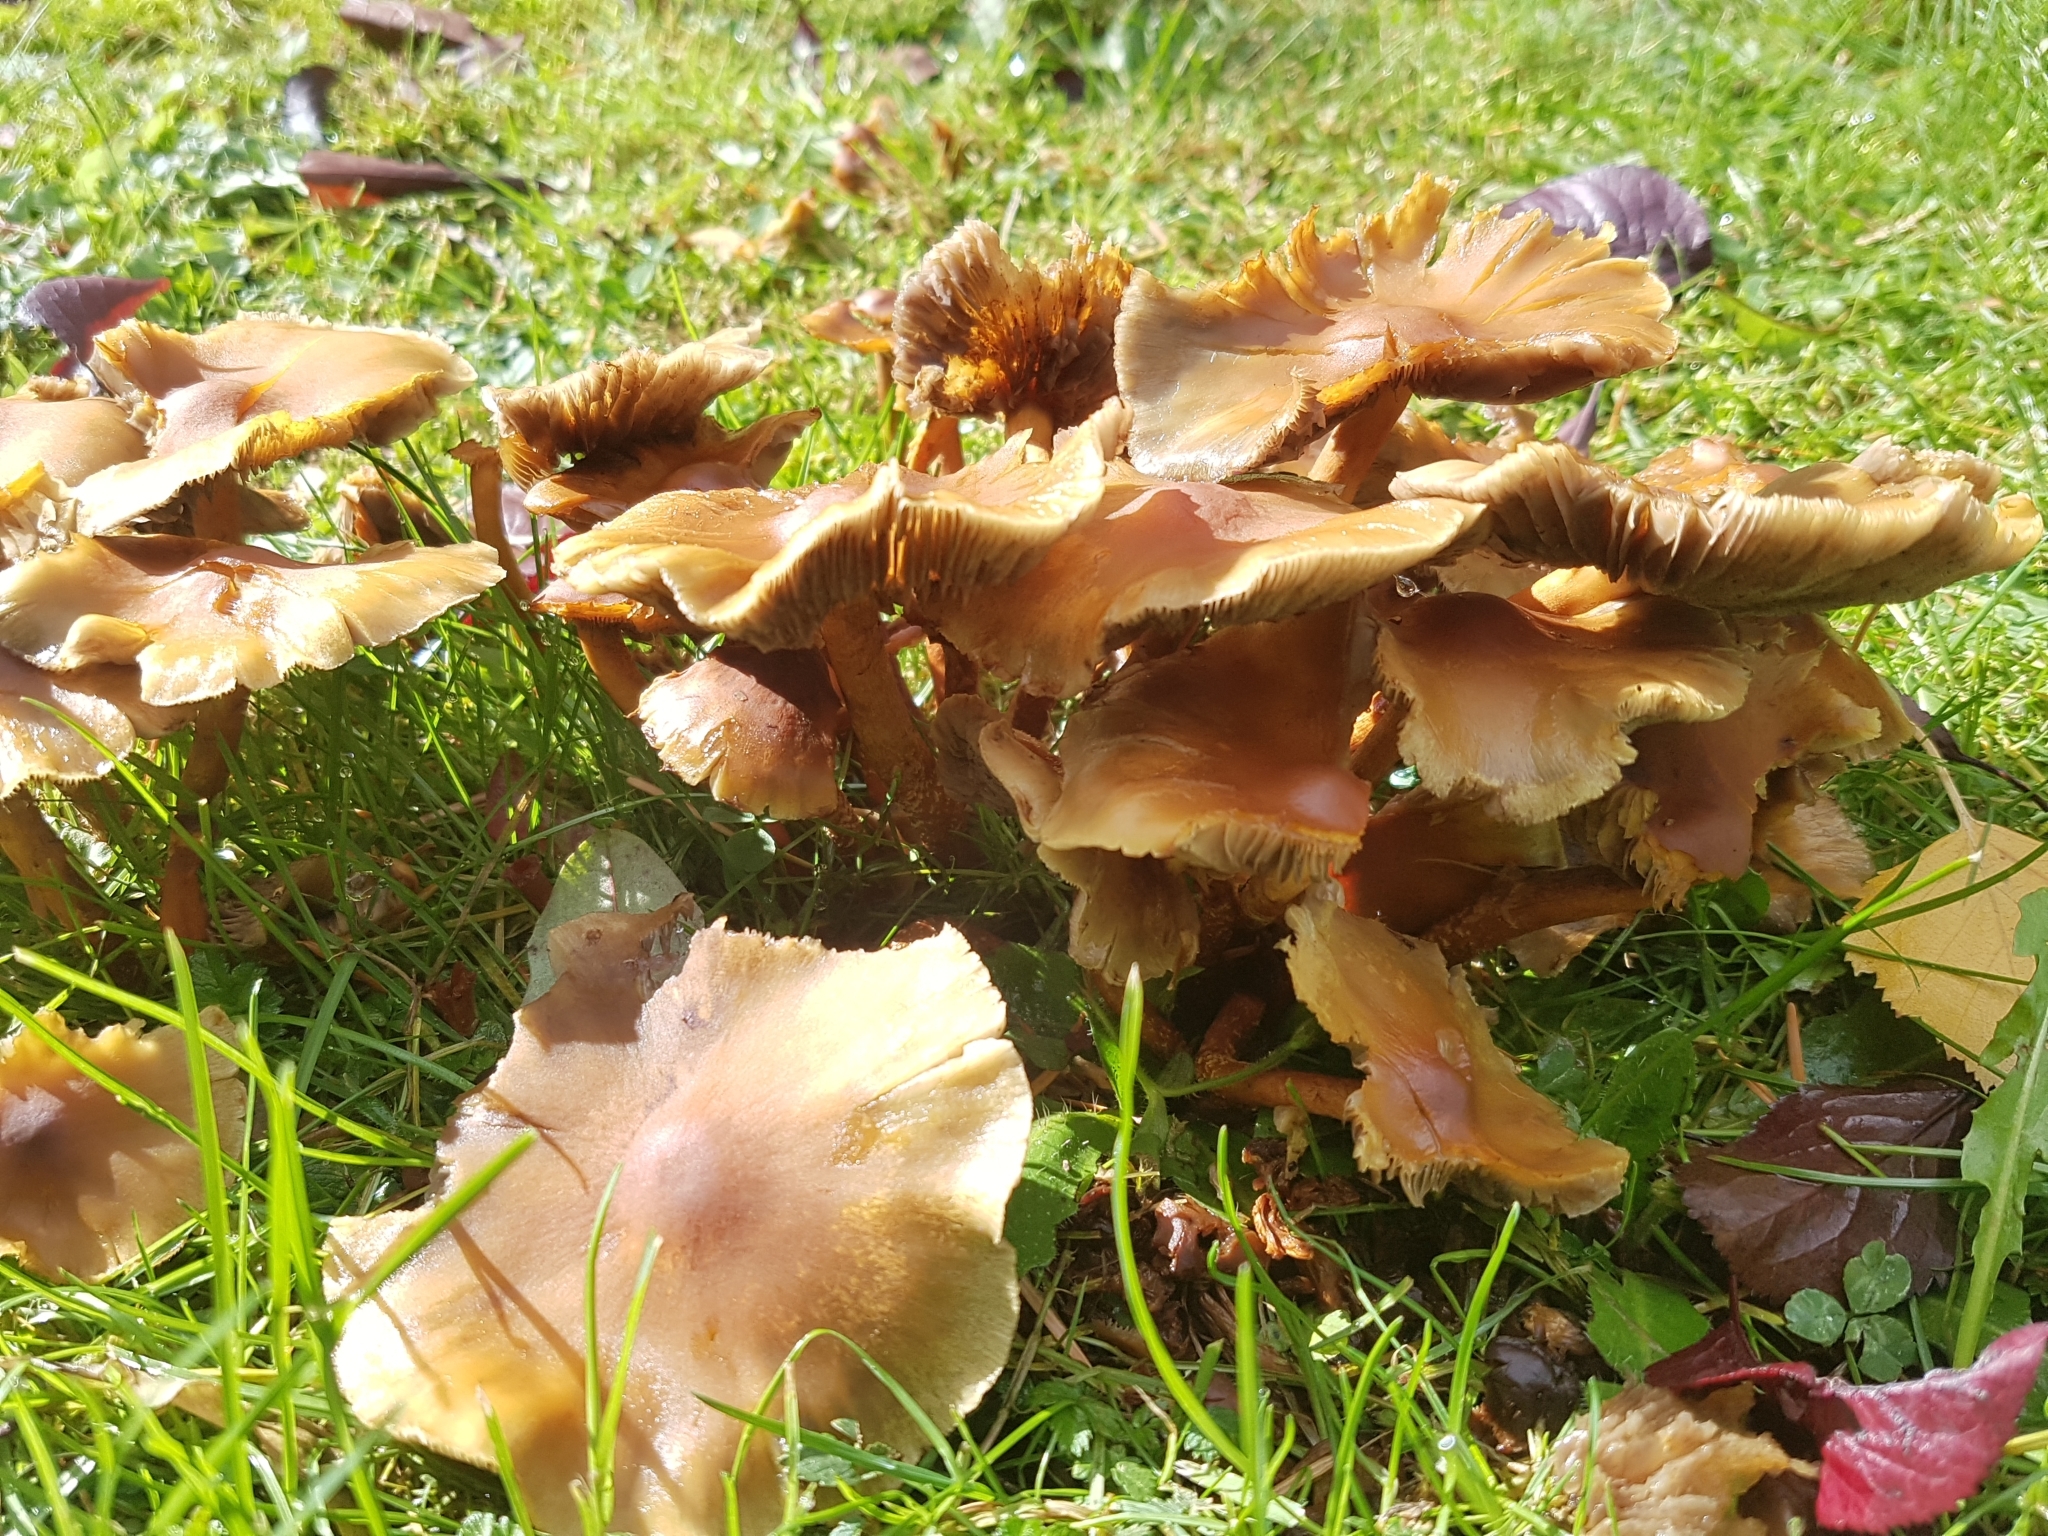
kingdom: Fungi
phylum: Basidiomycota
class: Agaricomycetes
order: Agaricales
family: Strophariaceae
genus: Hypholoma
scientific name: Hypholoma frowardii
